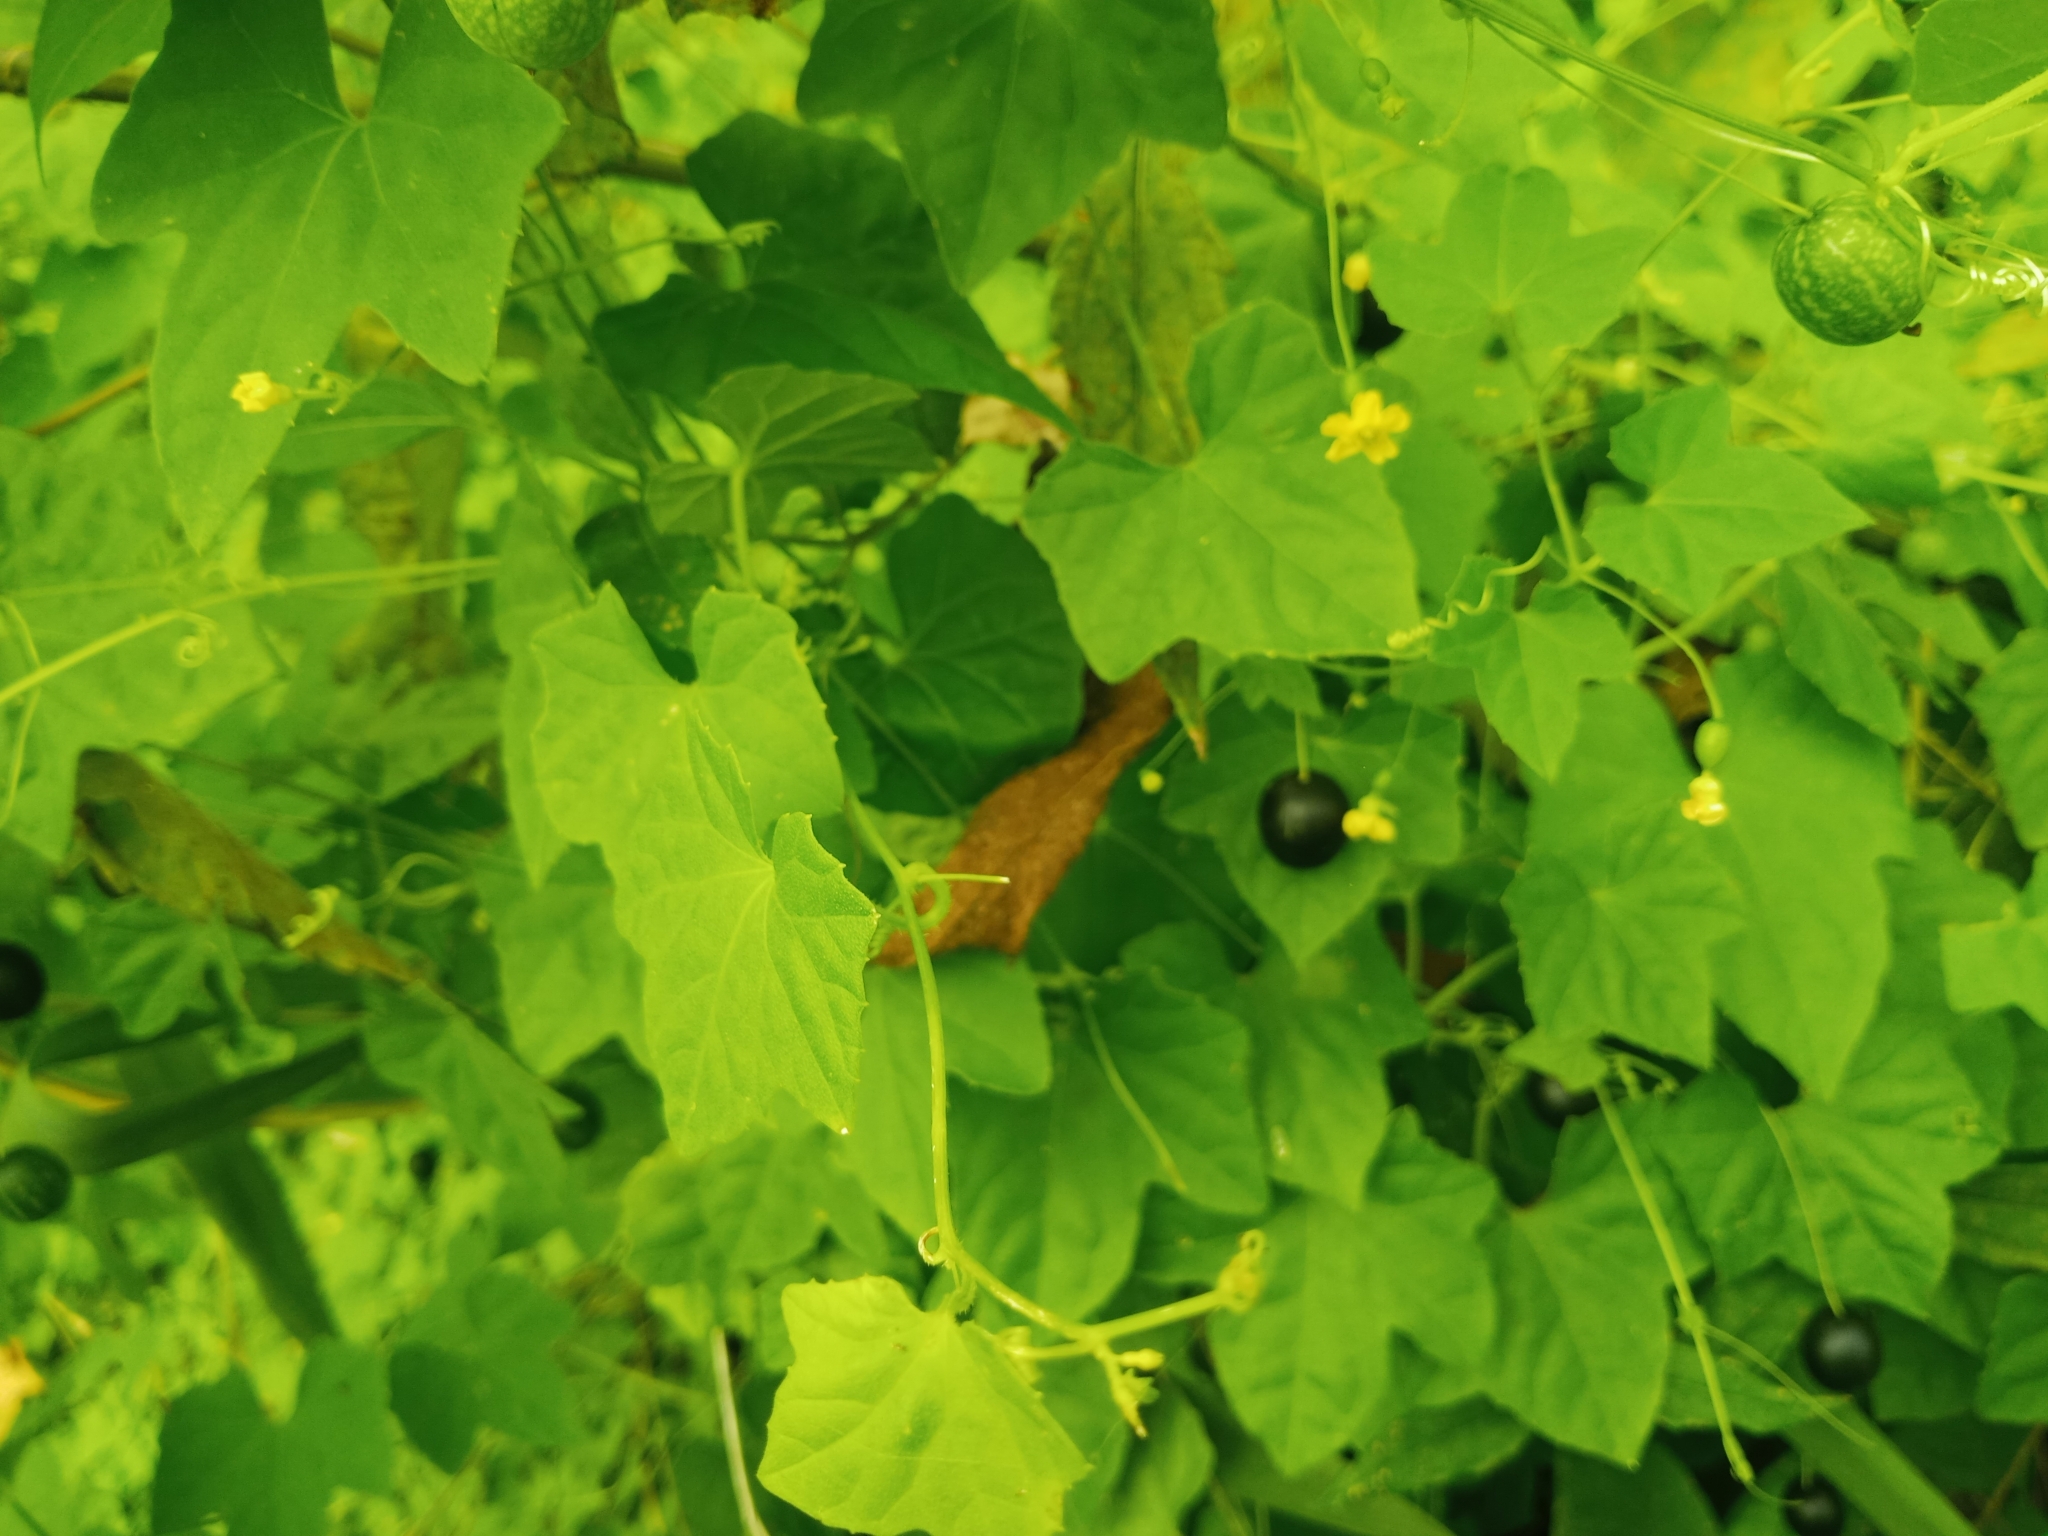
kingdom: Plantae
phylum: Tracheophyta
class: Magnoliopsida
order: Cucurbitales
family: Cucurbitaceae
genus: Melothria
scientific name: Melothria pendula
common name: Creeping-cucumber
